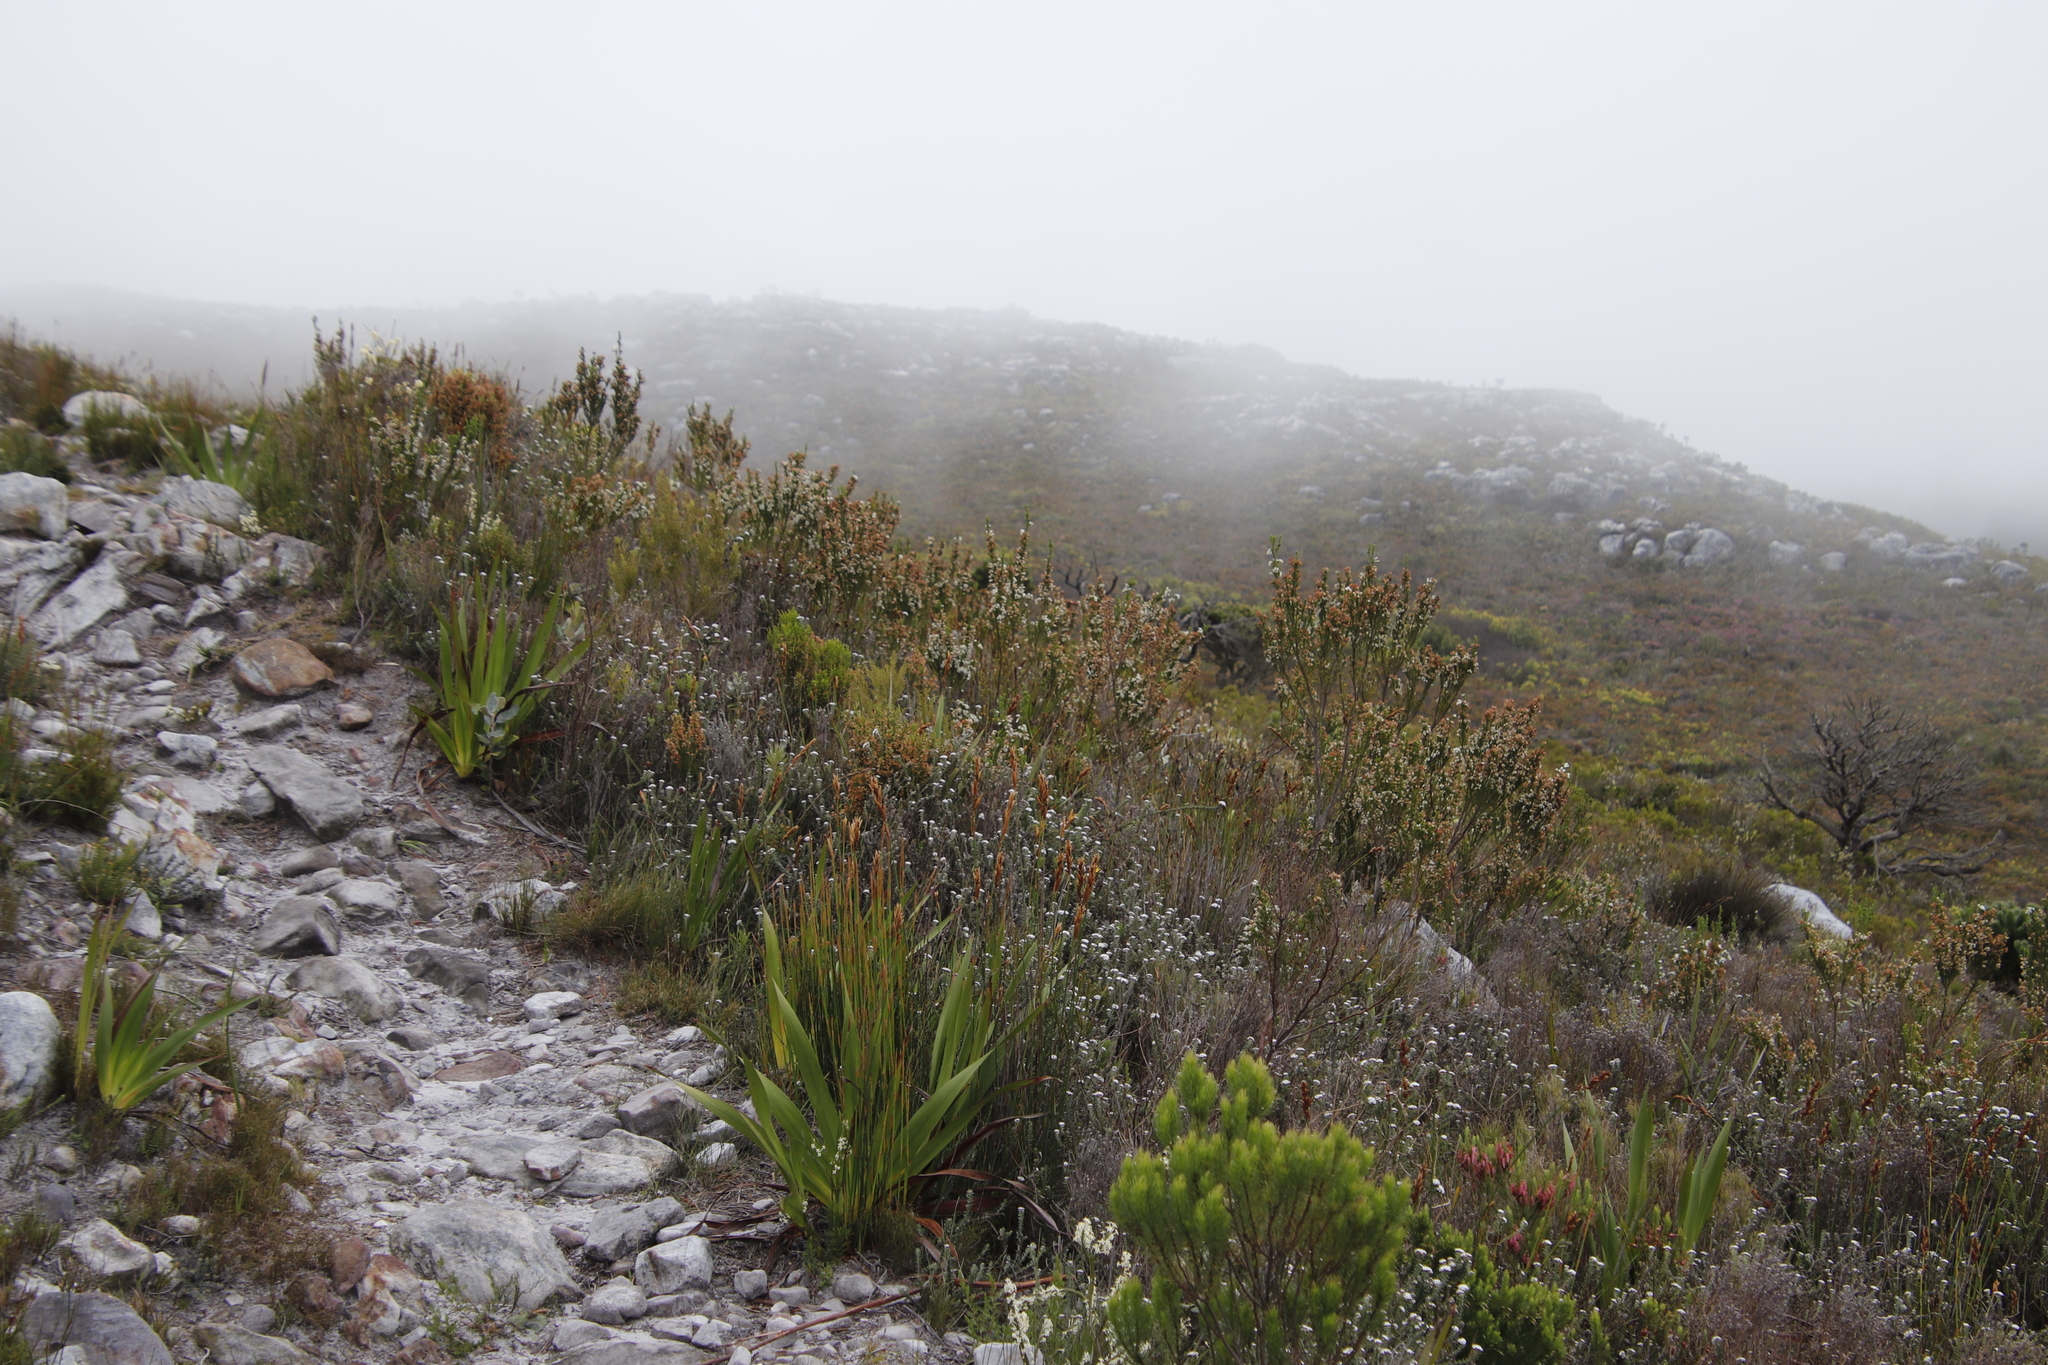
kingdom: Plantae
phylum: Tracheophyta
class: Magnoliopsida
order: Ericales
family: Ericaceae
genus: Erica
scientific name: Erica physodes
